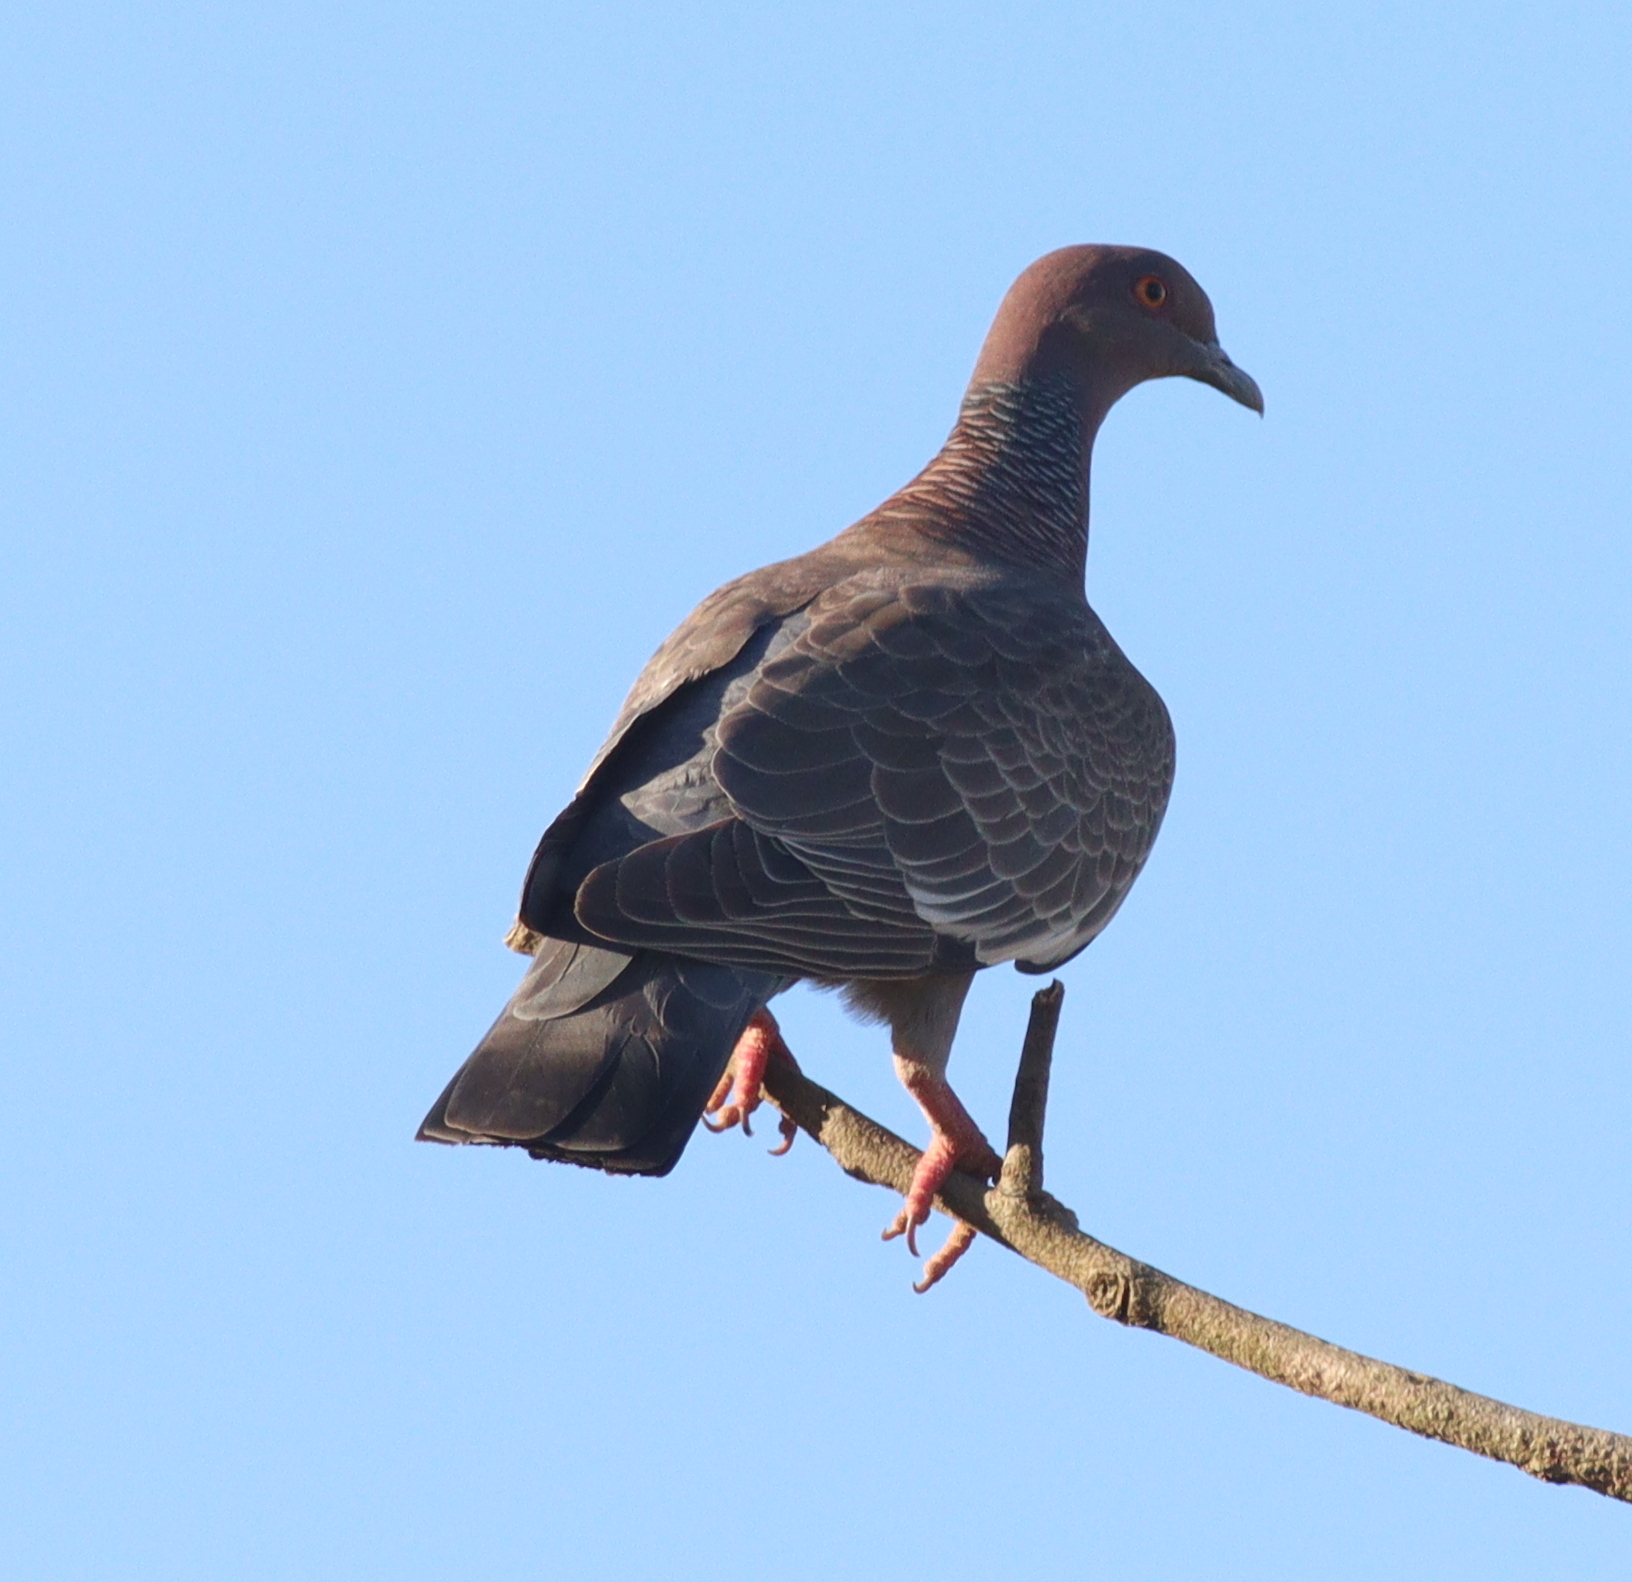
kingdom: Animalia
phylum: Chordata
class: Aves
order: Columbiformes
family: Columbidae
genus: Patagioenas
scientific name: Patagioenas picazuro
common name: Picazuro pigeon
